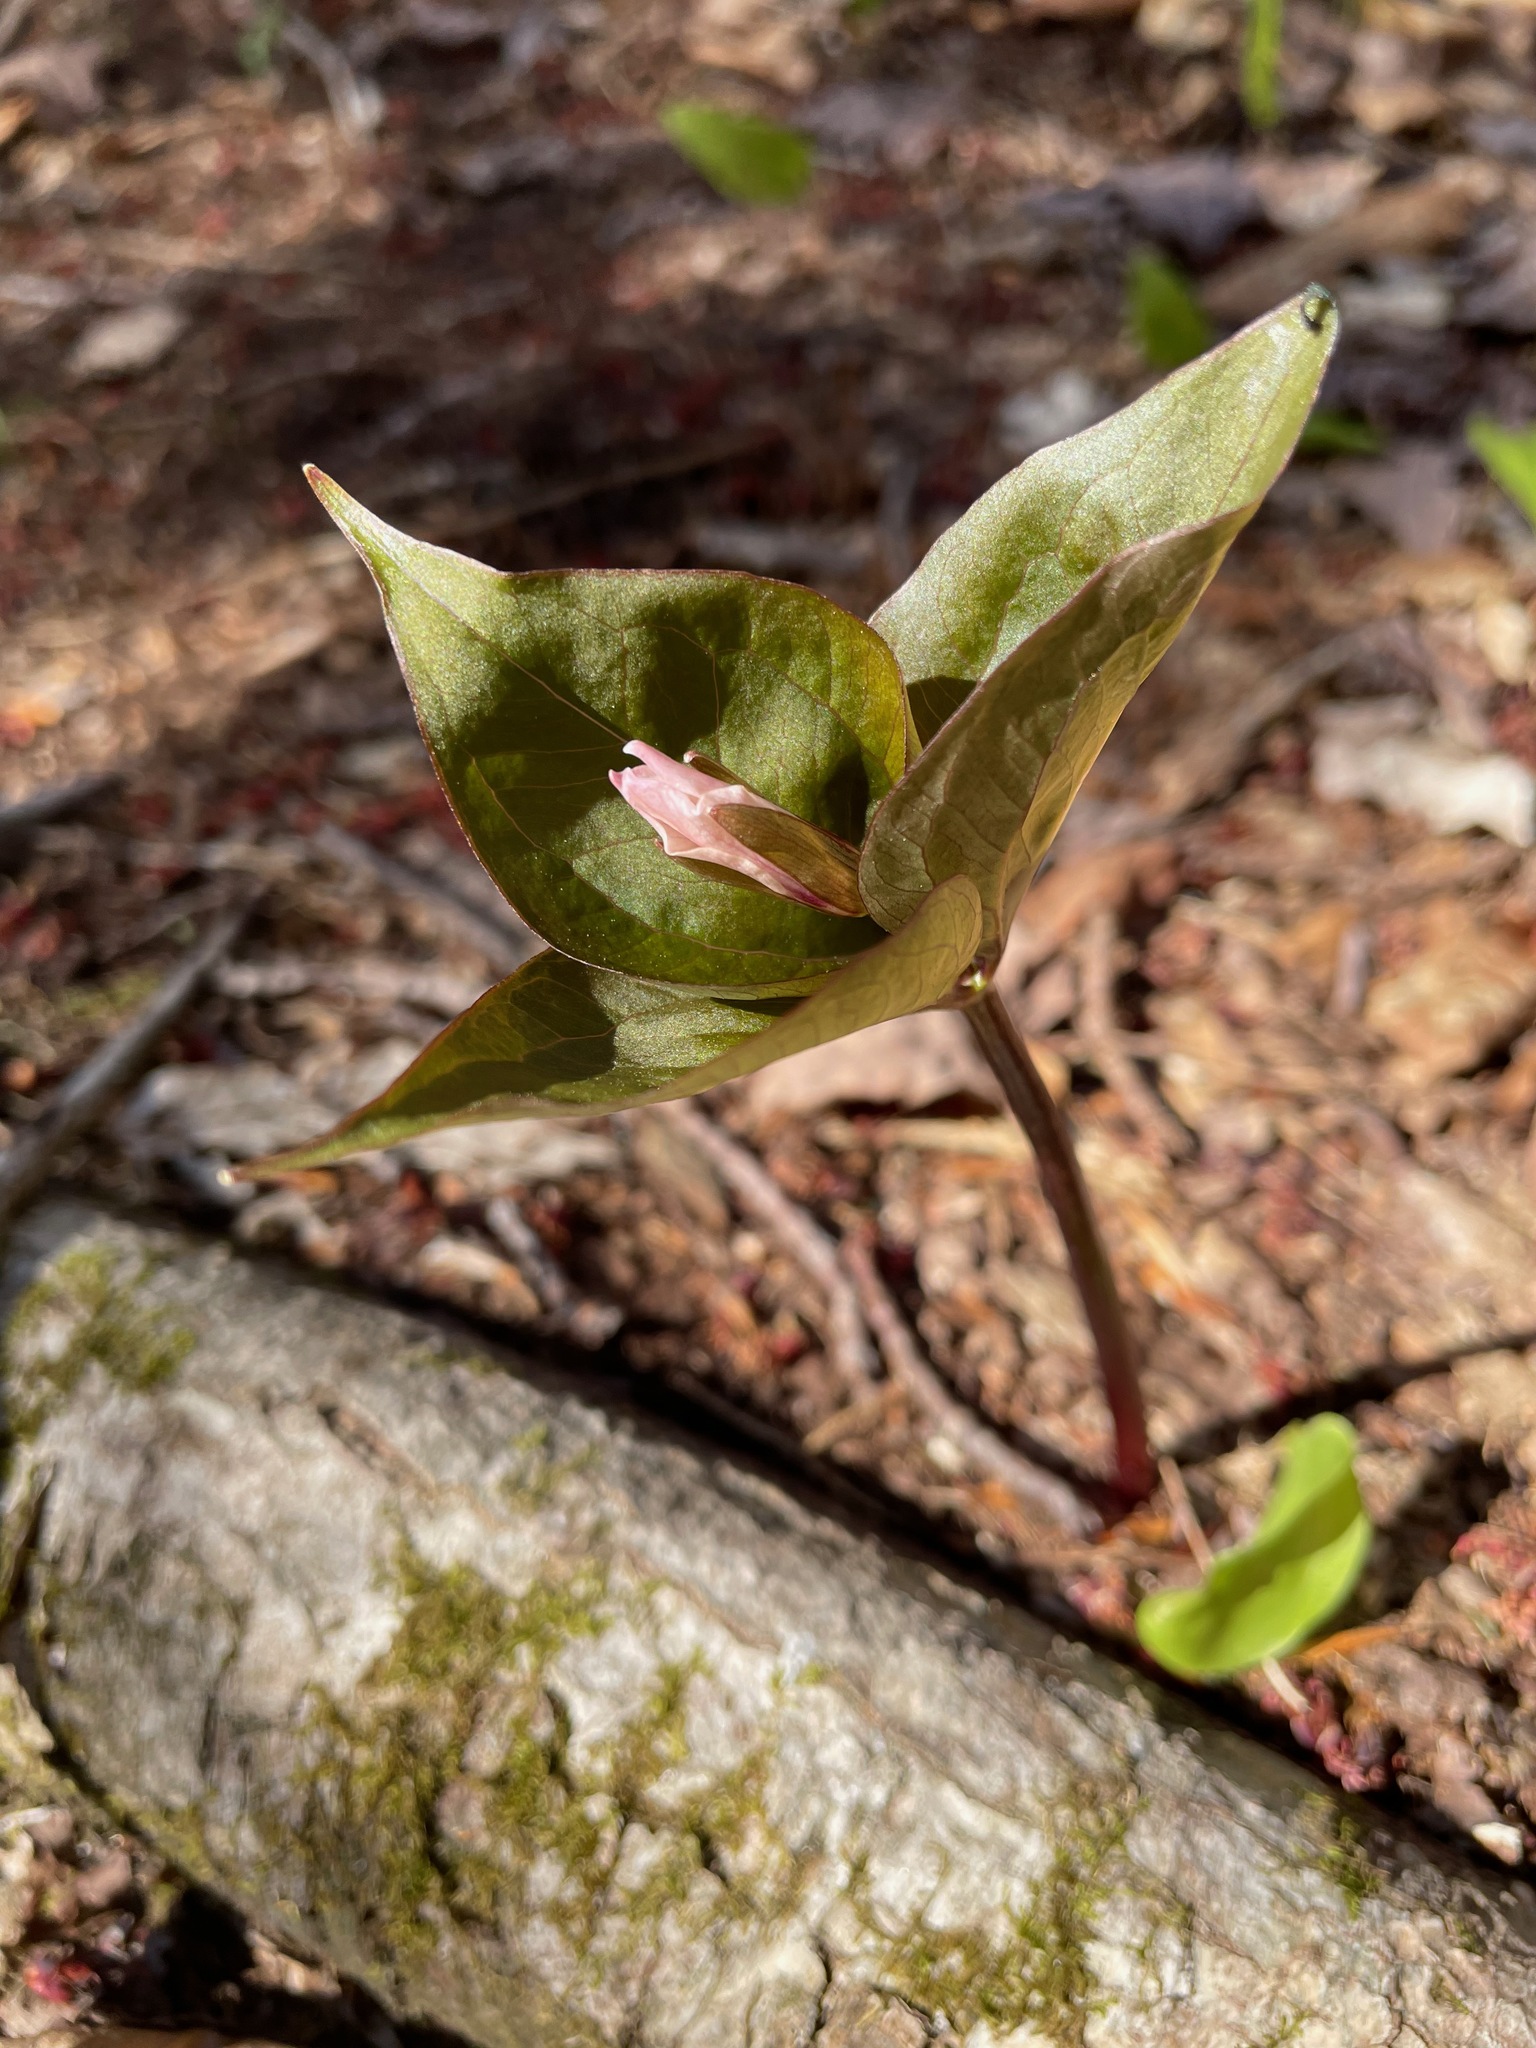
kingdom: Plantae
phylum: Tracheophyta
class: Liliopsida
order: Liliales
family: Melanthiaceae
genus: Trillium
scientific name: Trillium undulatum
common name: Paint trillium
